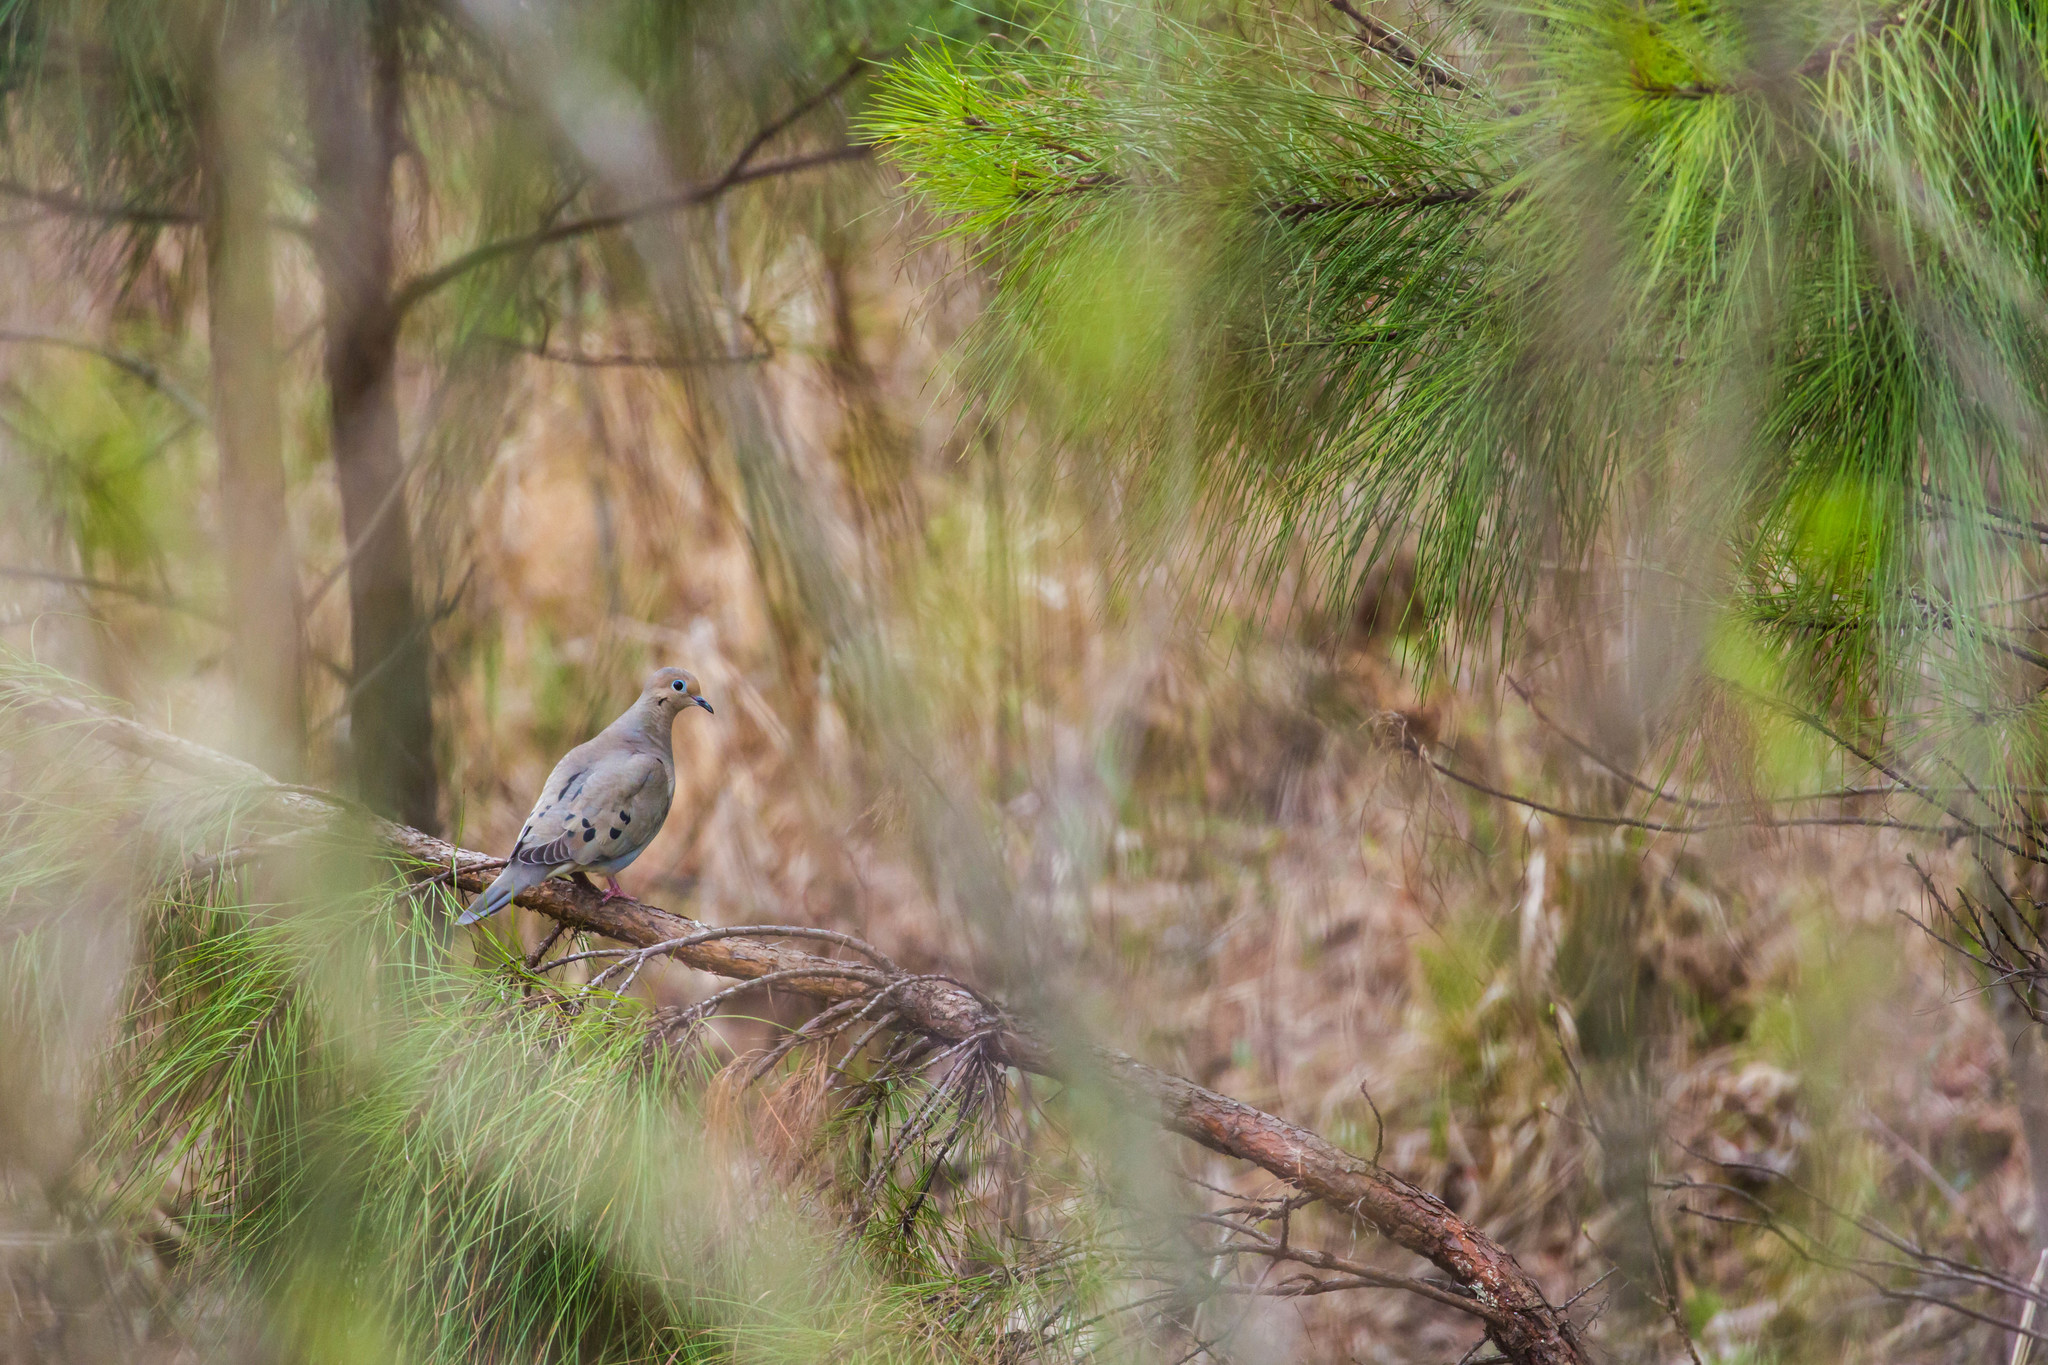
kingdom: Animalia
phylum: Chordata
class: Aves
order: Columbiformes
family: Columbidae
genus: Zenaida
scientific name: Zenaida macroura
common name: Mourning dove
